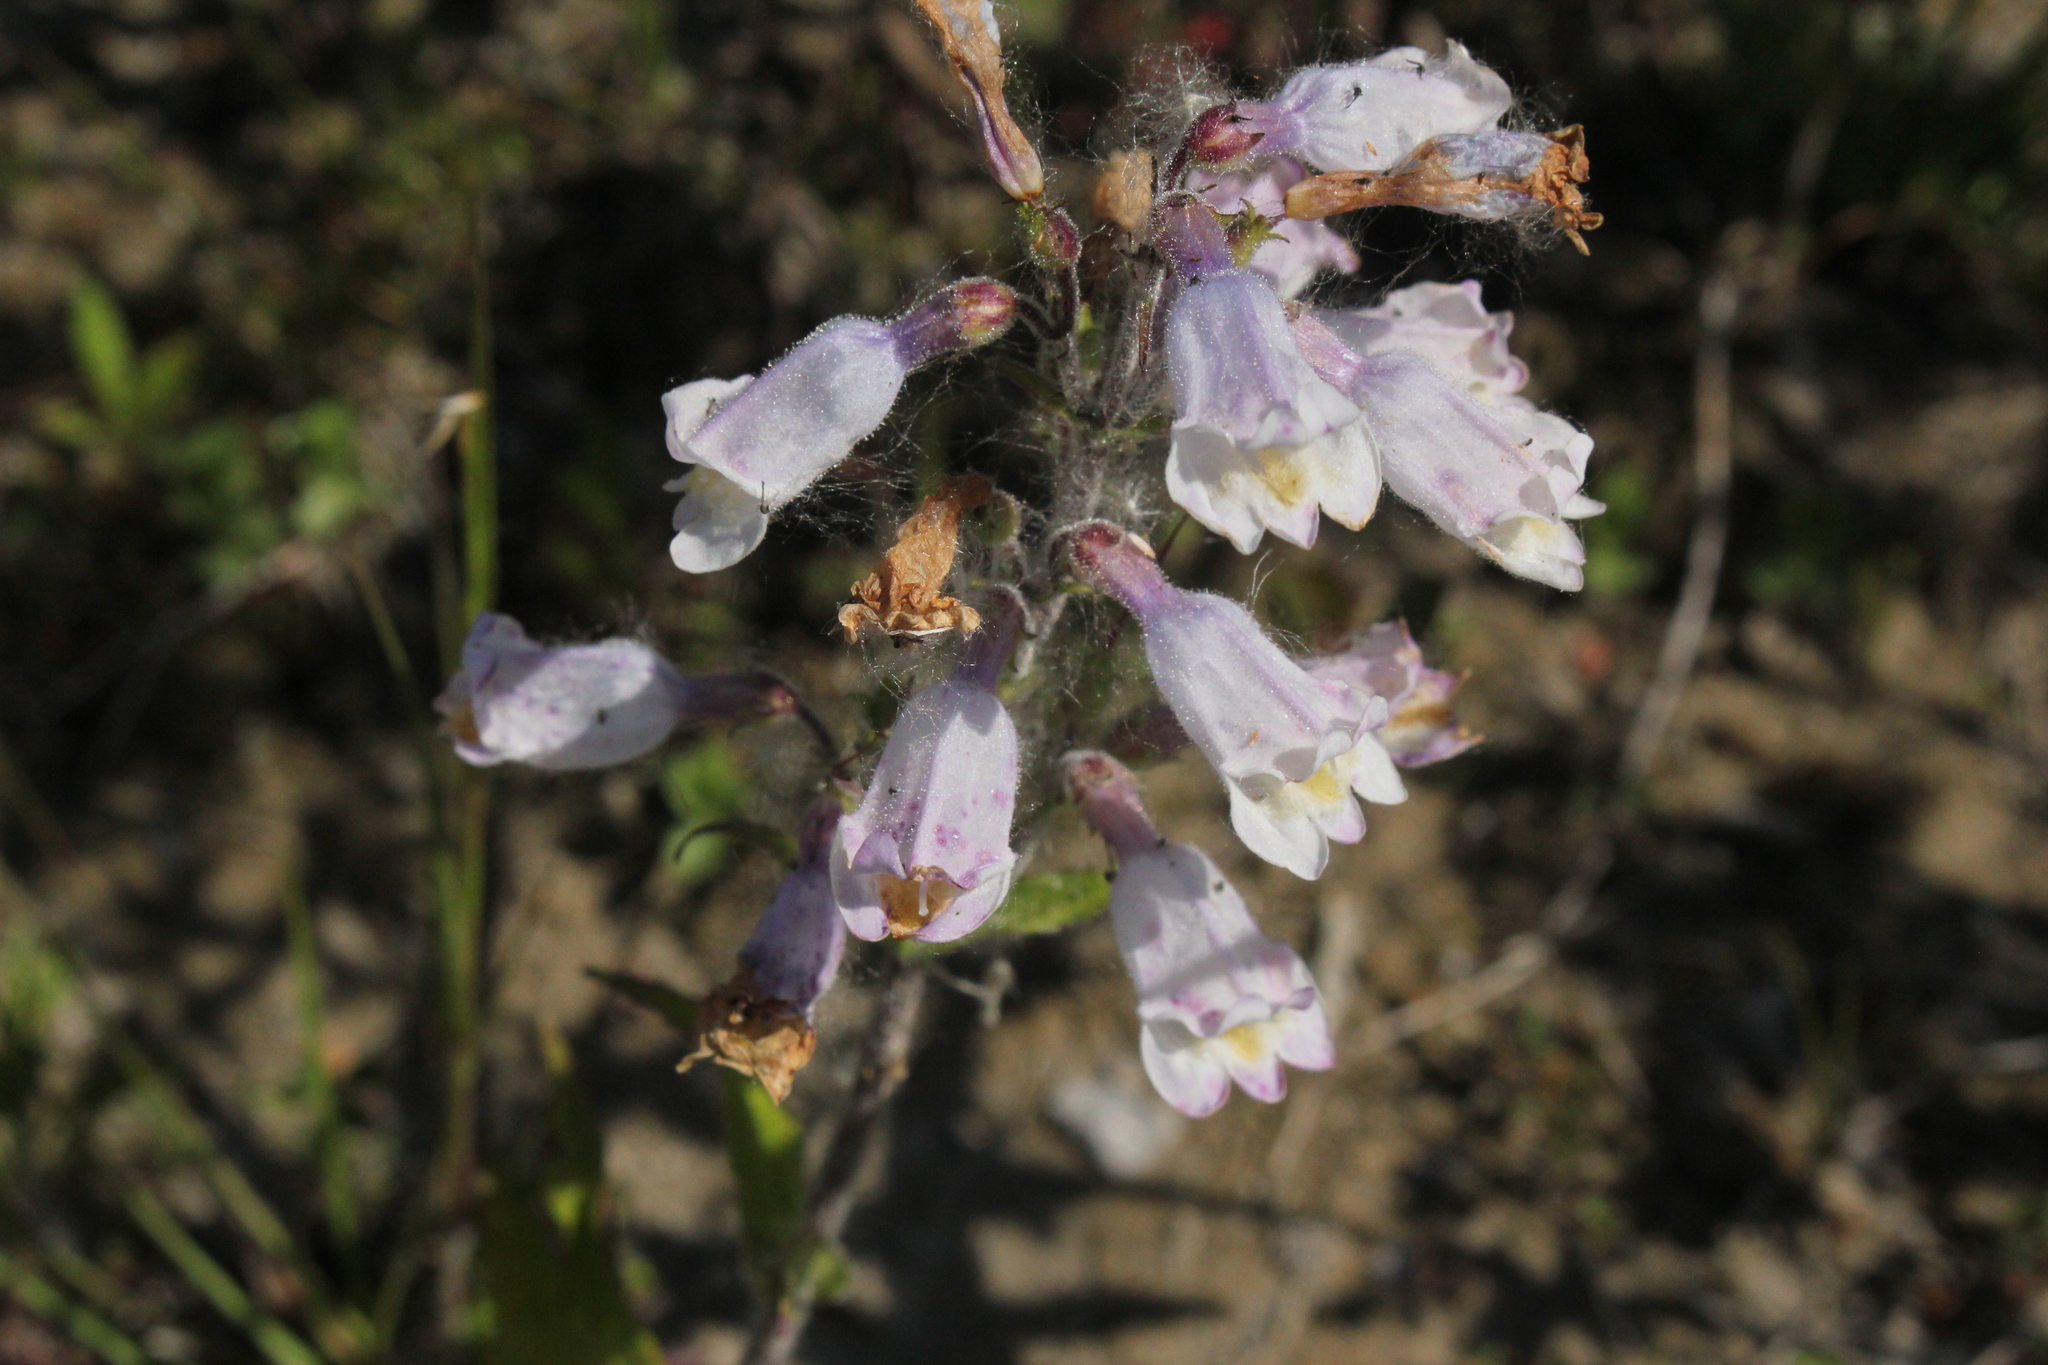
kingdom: Plantae
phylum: Tracheophyta
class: Magnoliopsida
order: Lamiales
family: Plantaginaceae
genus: Penstemon
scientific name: Penstemon hirsutus
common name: Hairy beardtongue
